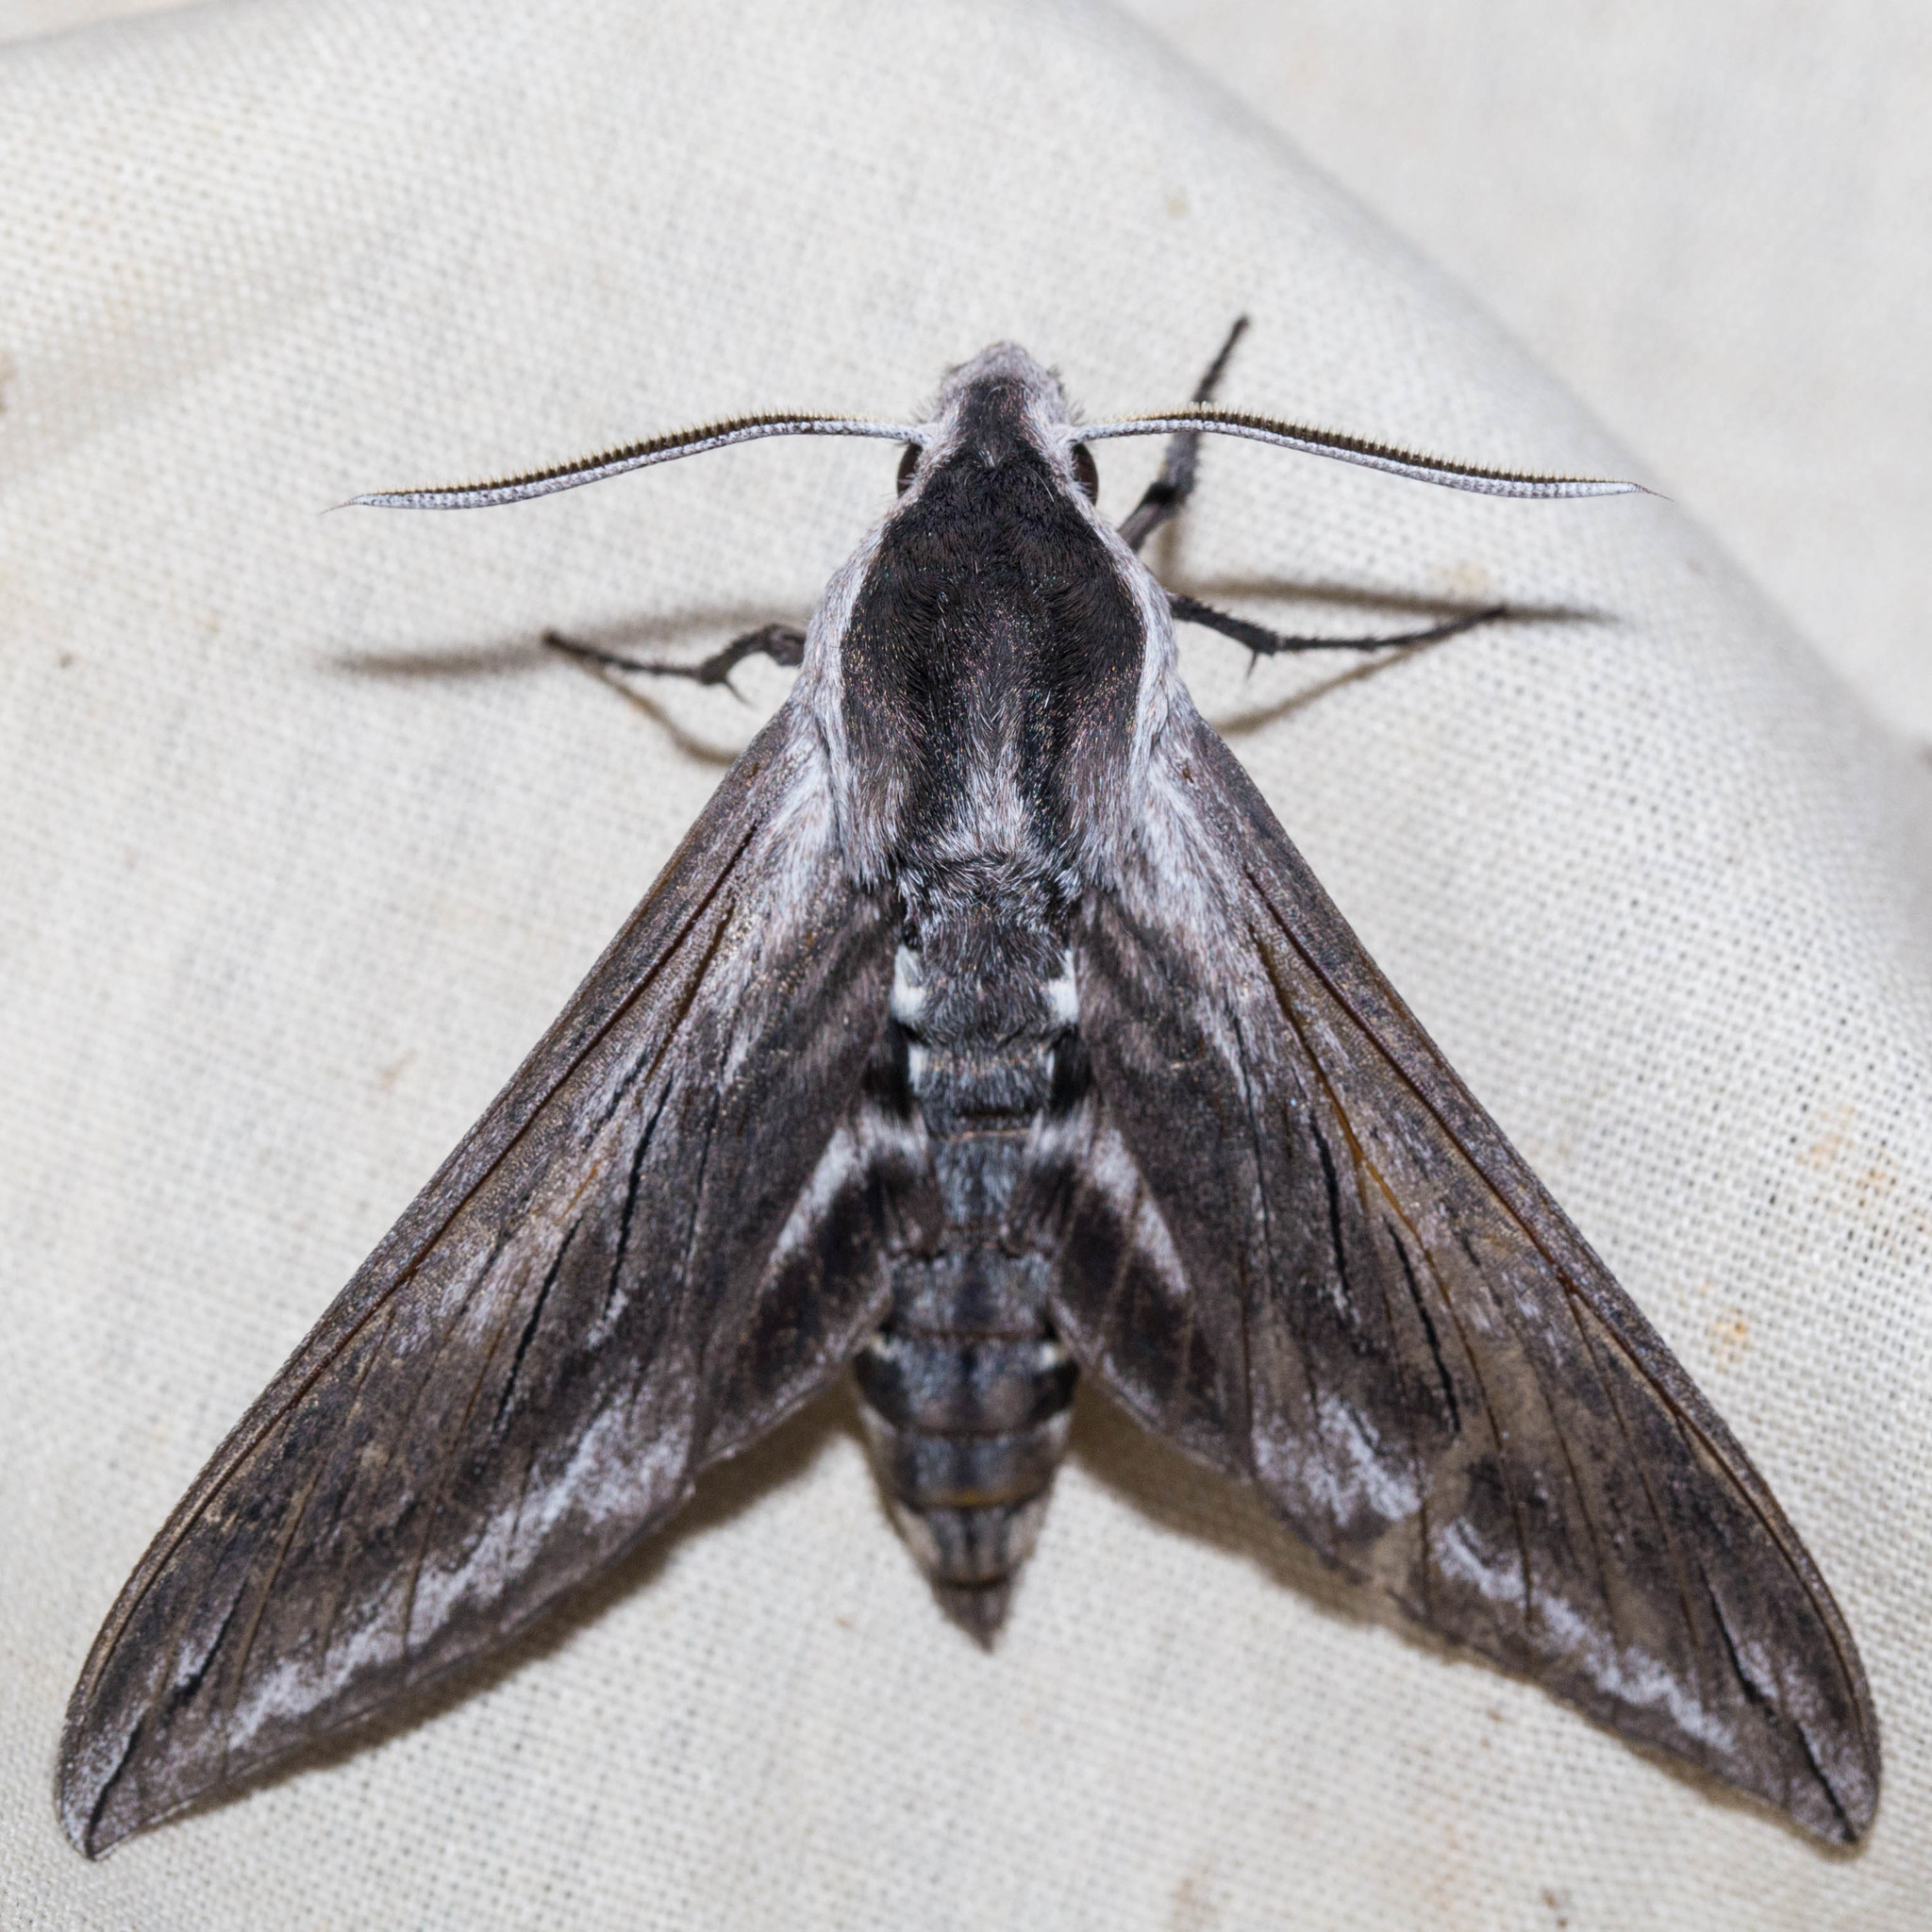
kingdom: Animalia
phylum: Arthropoda
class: Insecta
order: Lepidoptera
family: Sphingidae
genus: Sphinx
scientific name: Sphinx perelegans
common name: Elegant sphinx
